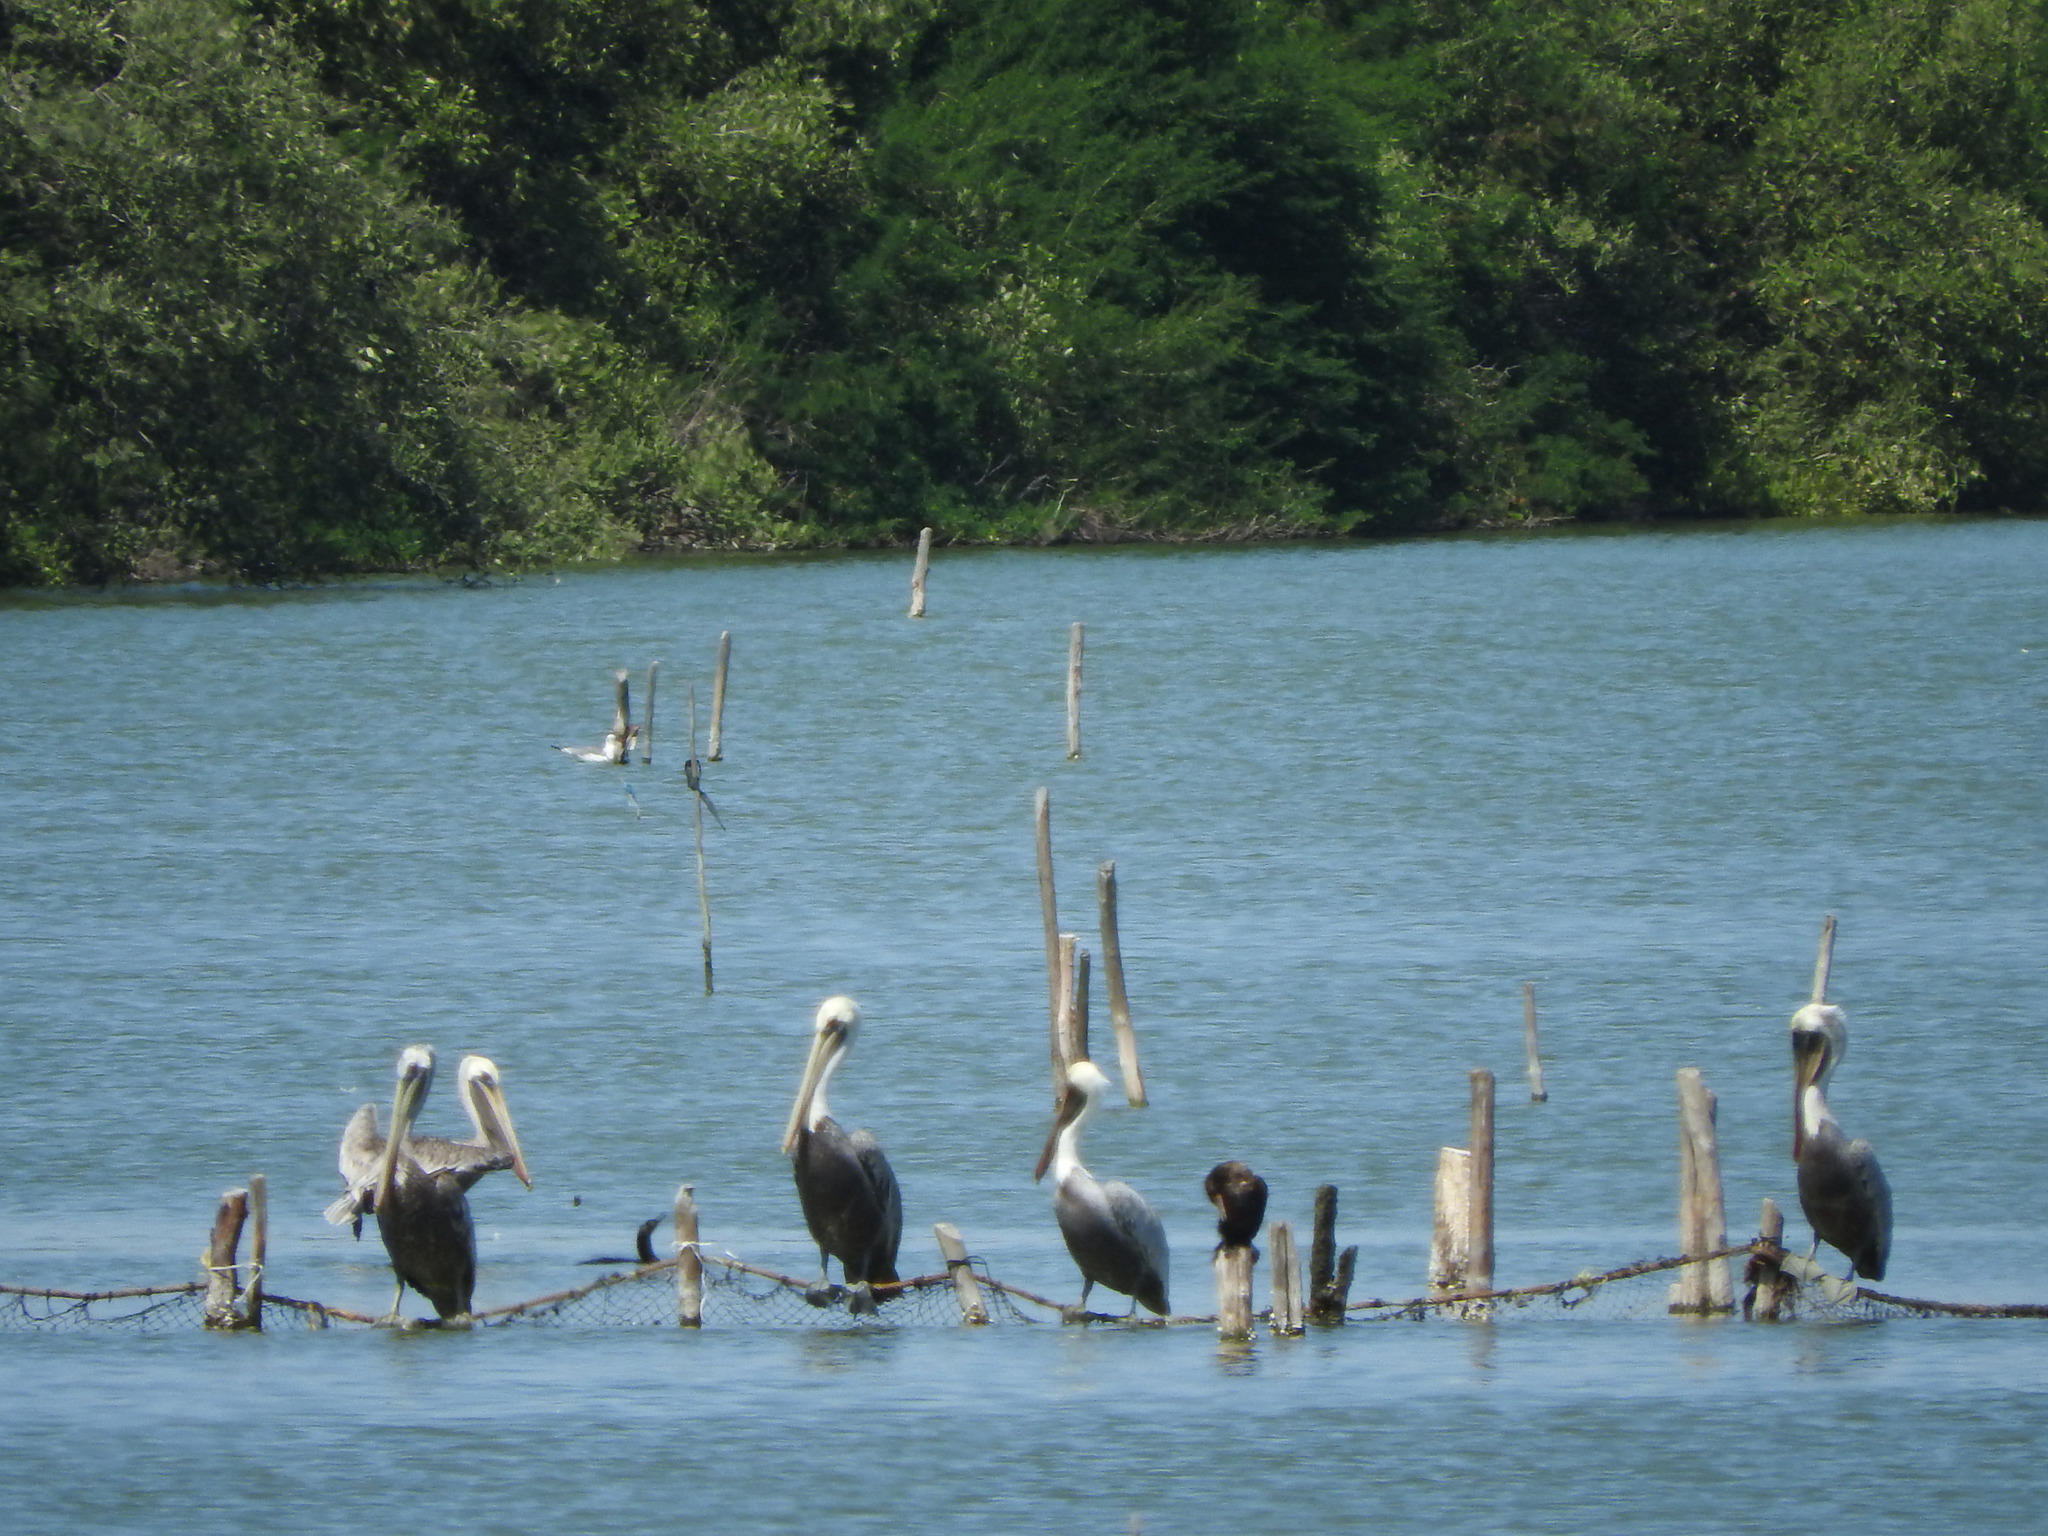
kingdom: Animalia
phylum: Chordata
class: Aves
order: Pelecaniformes
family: Pelecanidae
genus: Pelecanus
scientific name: Pelecanus occidentalis
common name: Brown pelican
